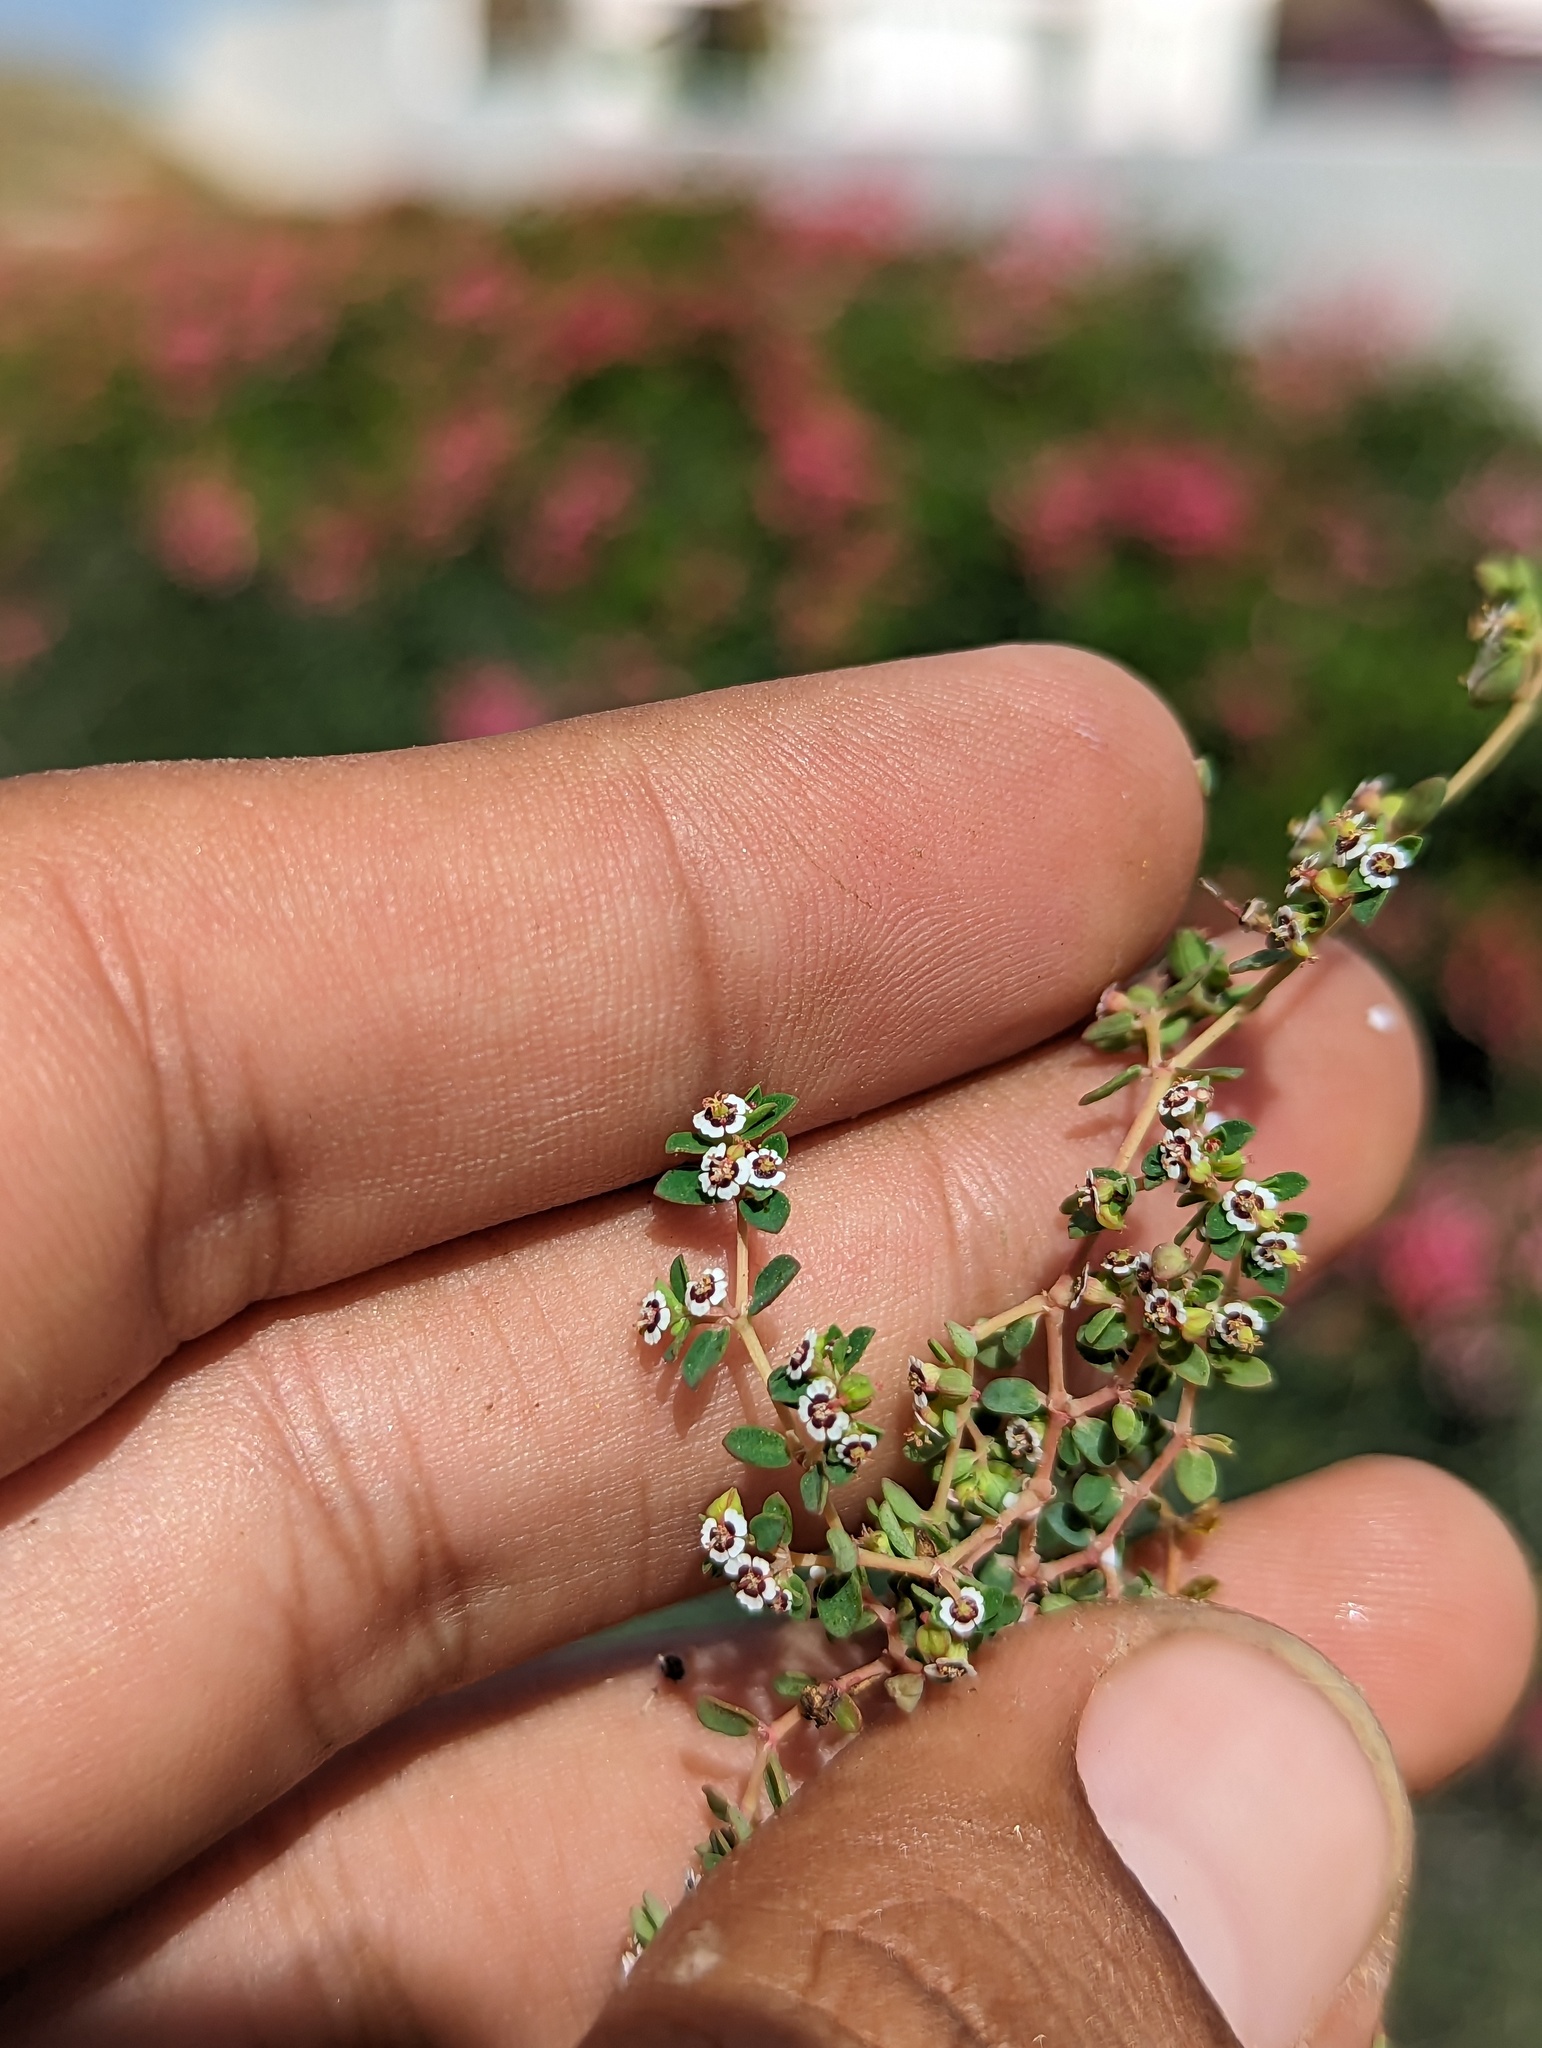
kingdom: Plantae
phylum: Tracheophyta
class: Magnoliopsida
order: Malpighiales
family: Euphorbiaceae
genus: Euphorbia
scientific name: Euphorbia polycarpa
